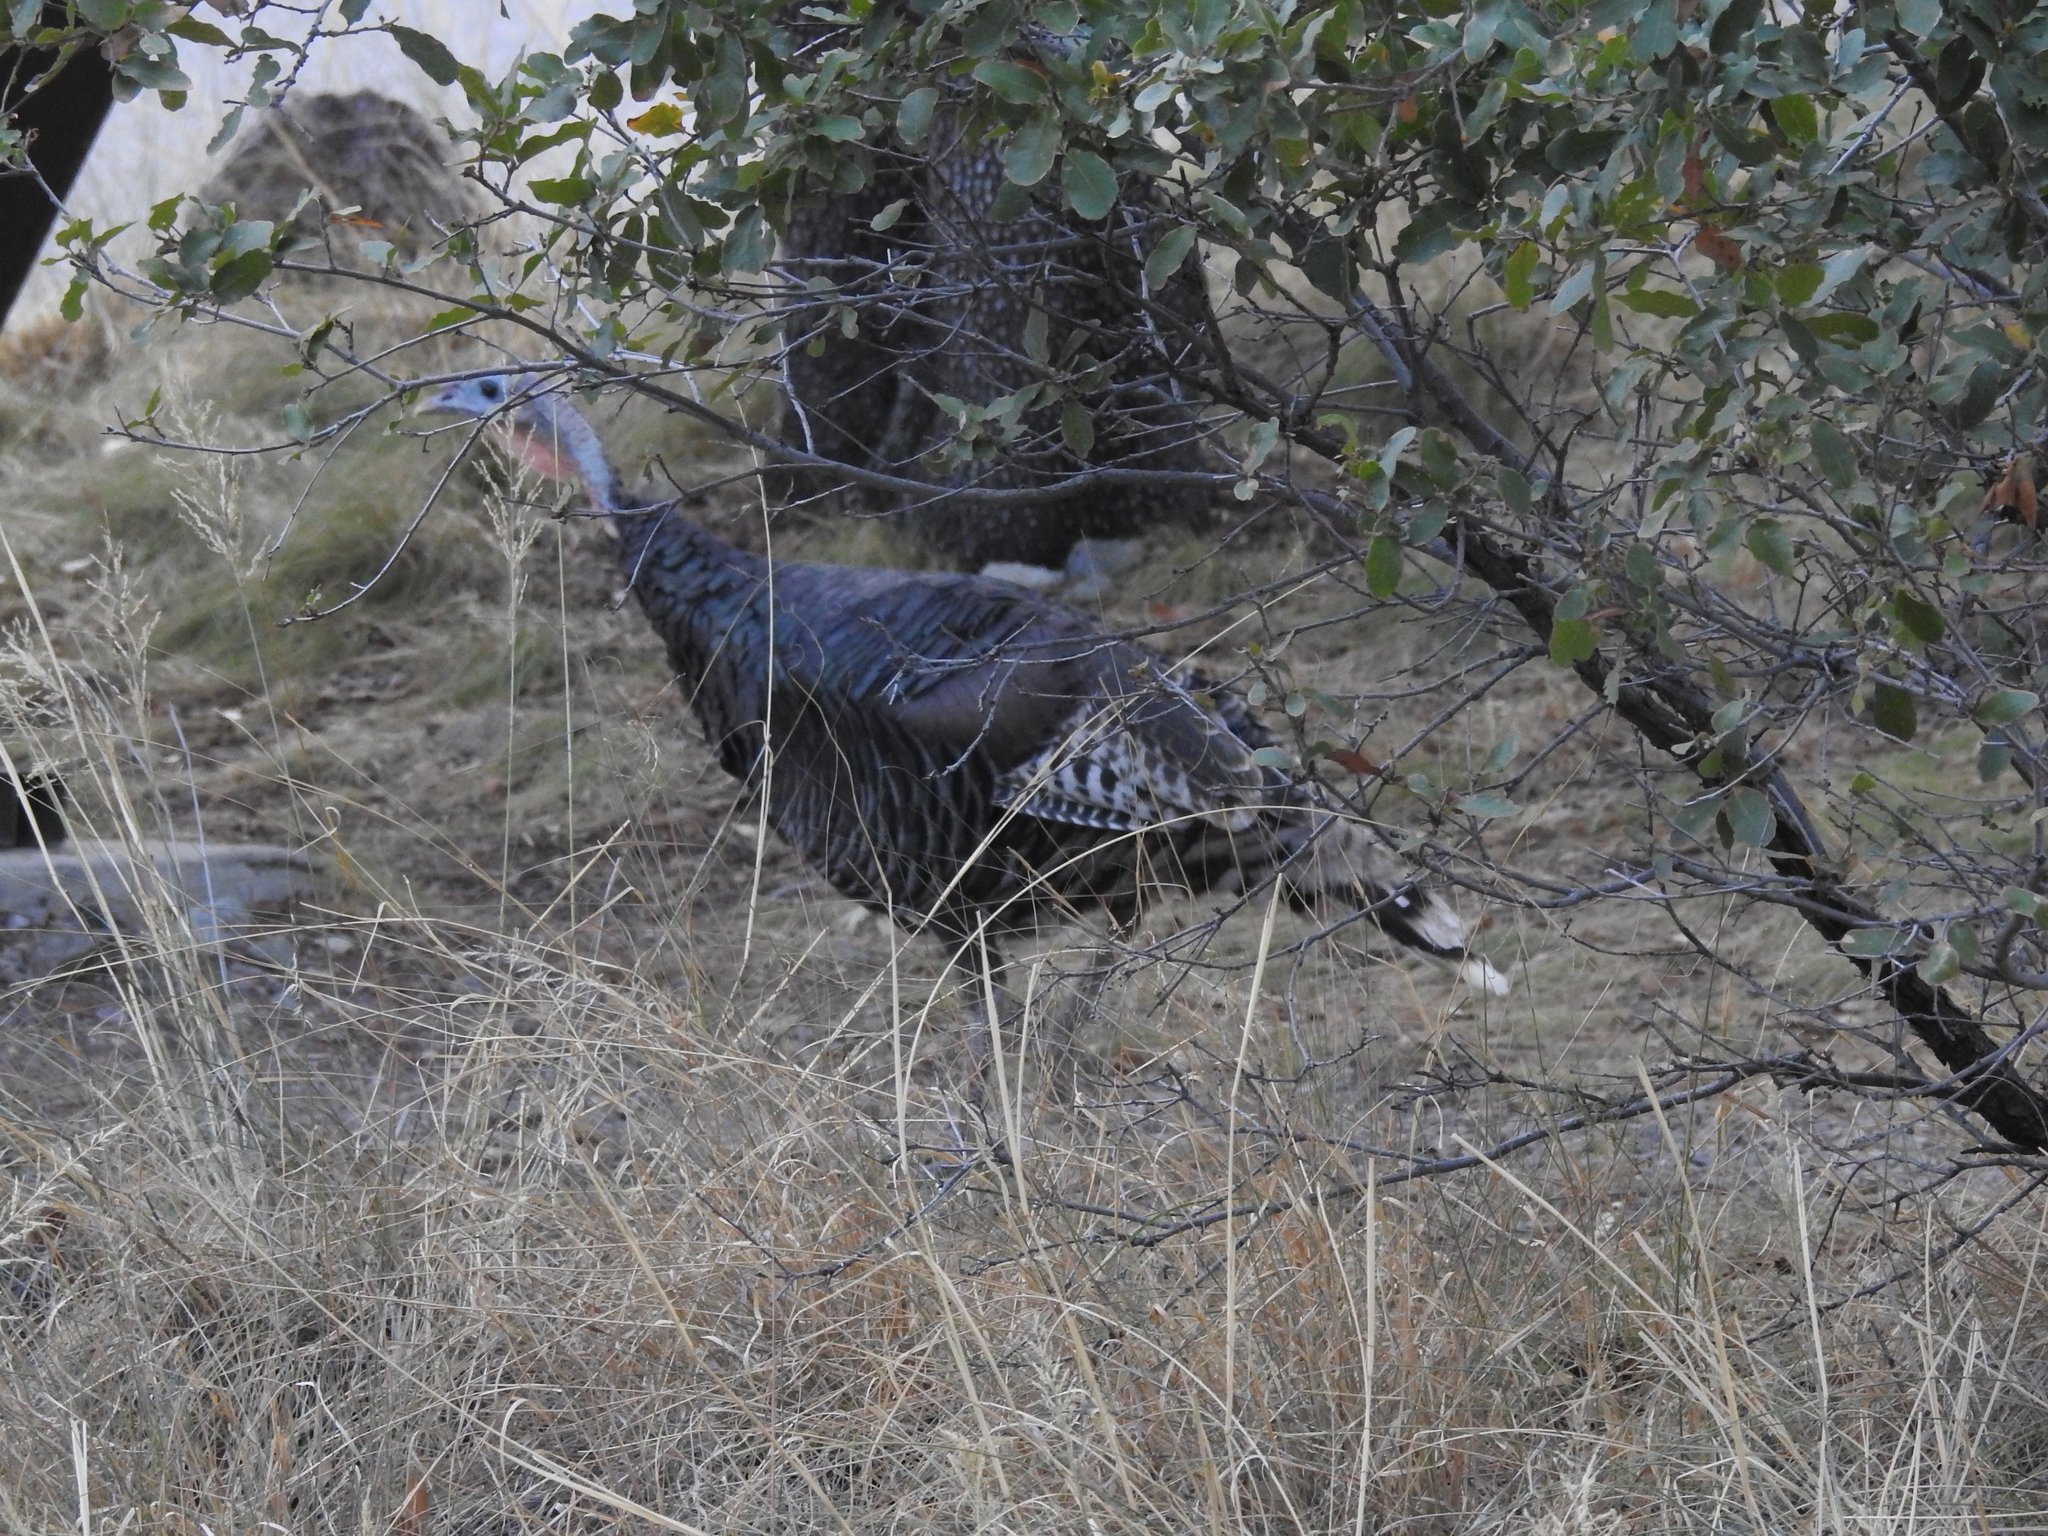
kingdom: Animalia
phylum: Chordata
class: Aves
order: Galliformes
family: Phasianidae
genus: Meleagris
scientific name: Meleagris gallopavo
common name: Wild turkey
